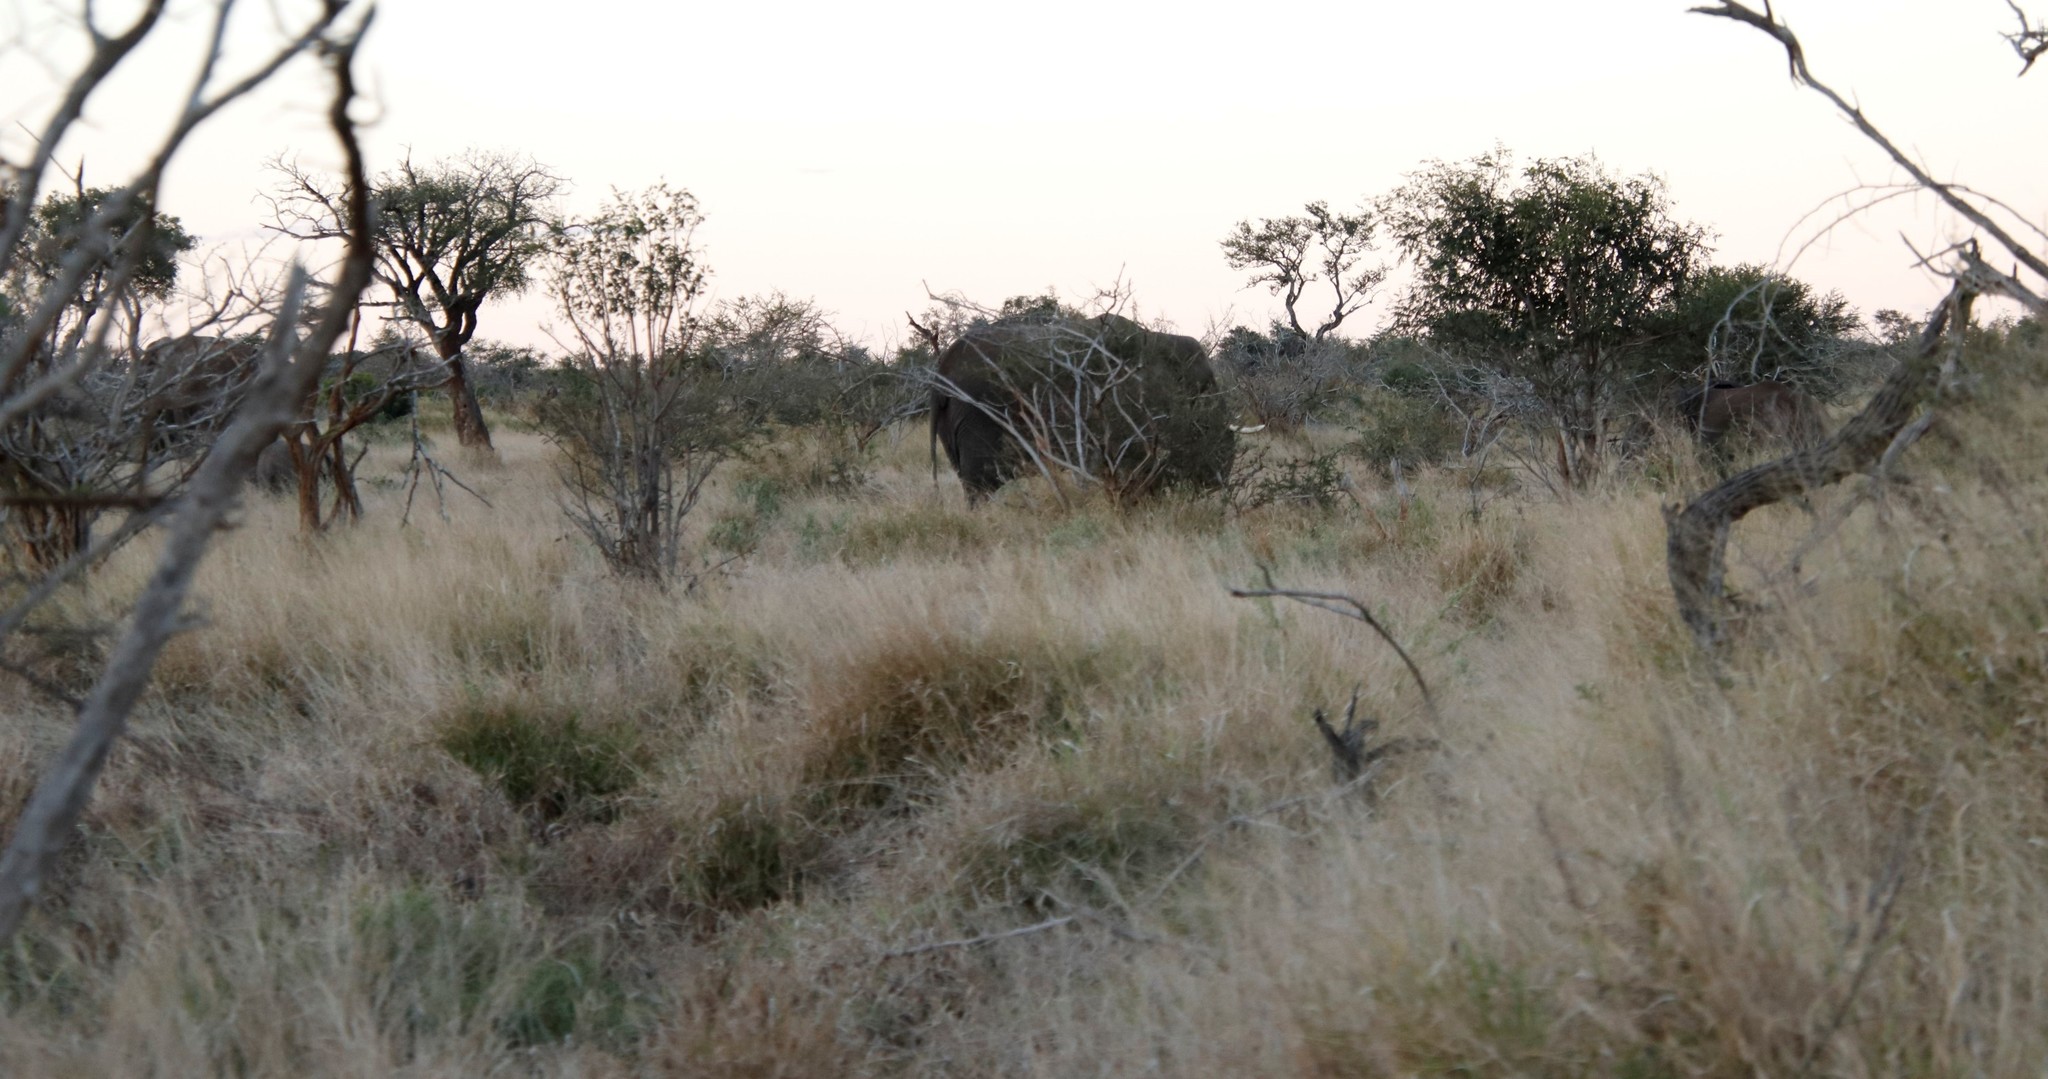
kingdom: Animalia
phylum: Chordata
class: Mammalia
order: Proboscidea
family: Elephantidae
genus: Loxodonta
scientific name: Loxodonta africana
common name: African elephant
